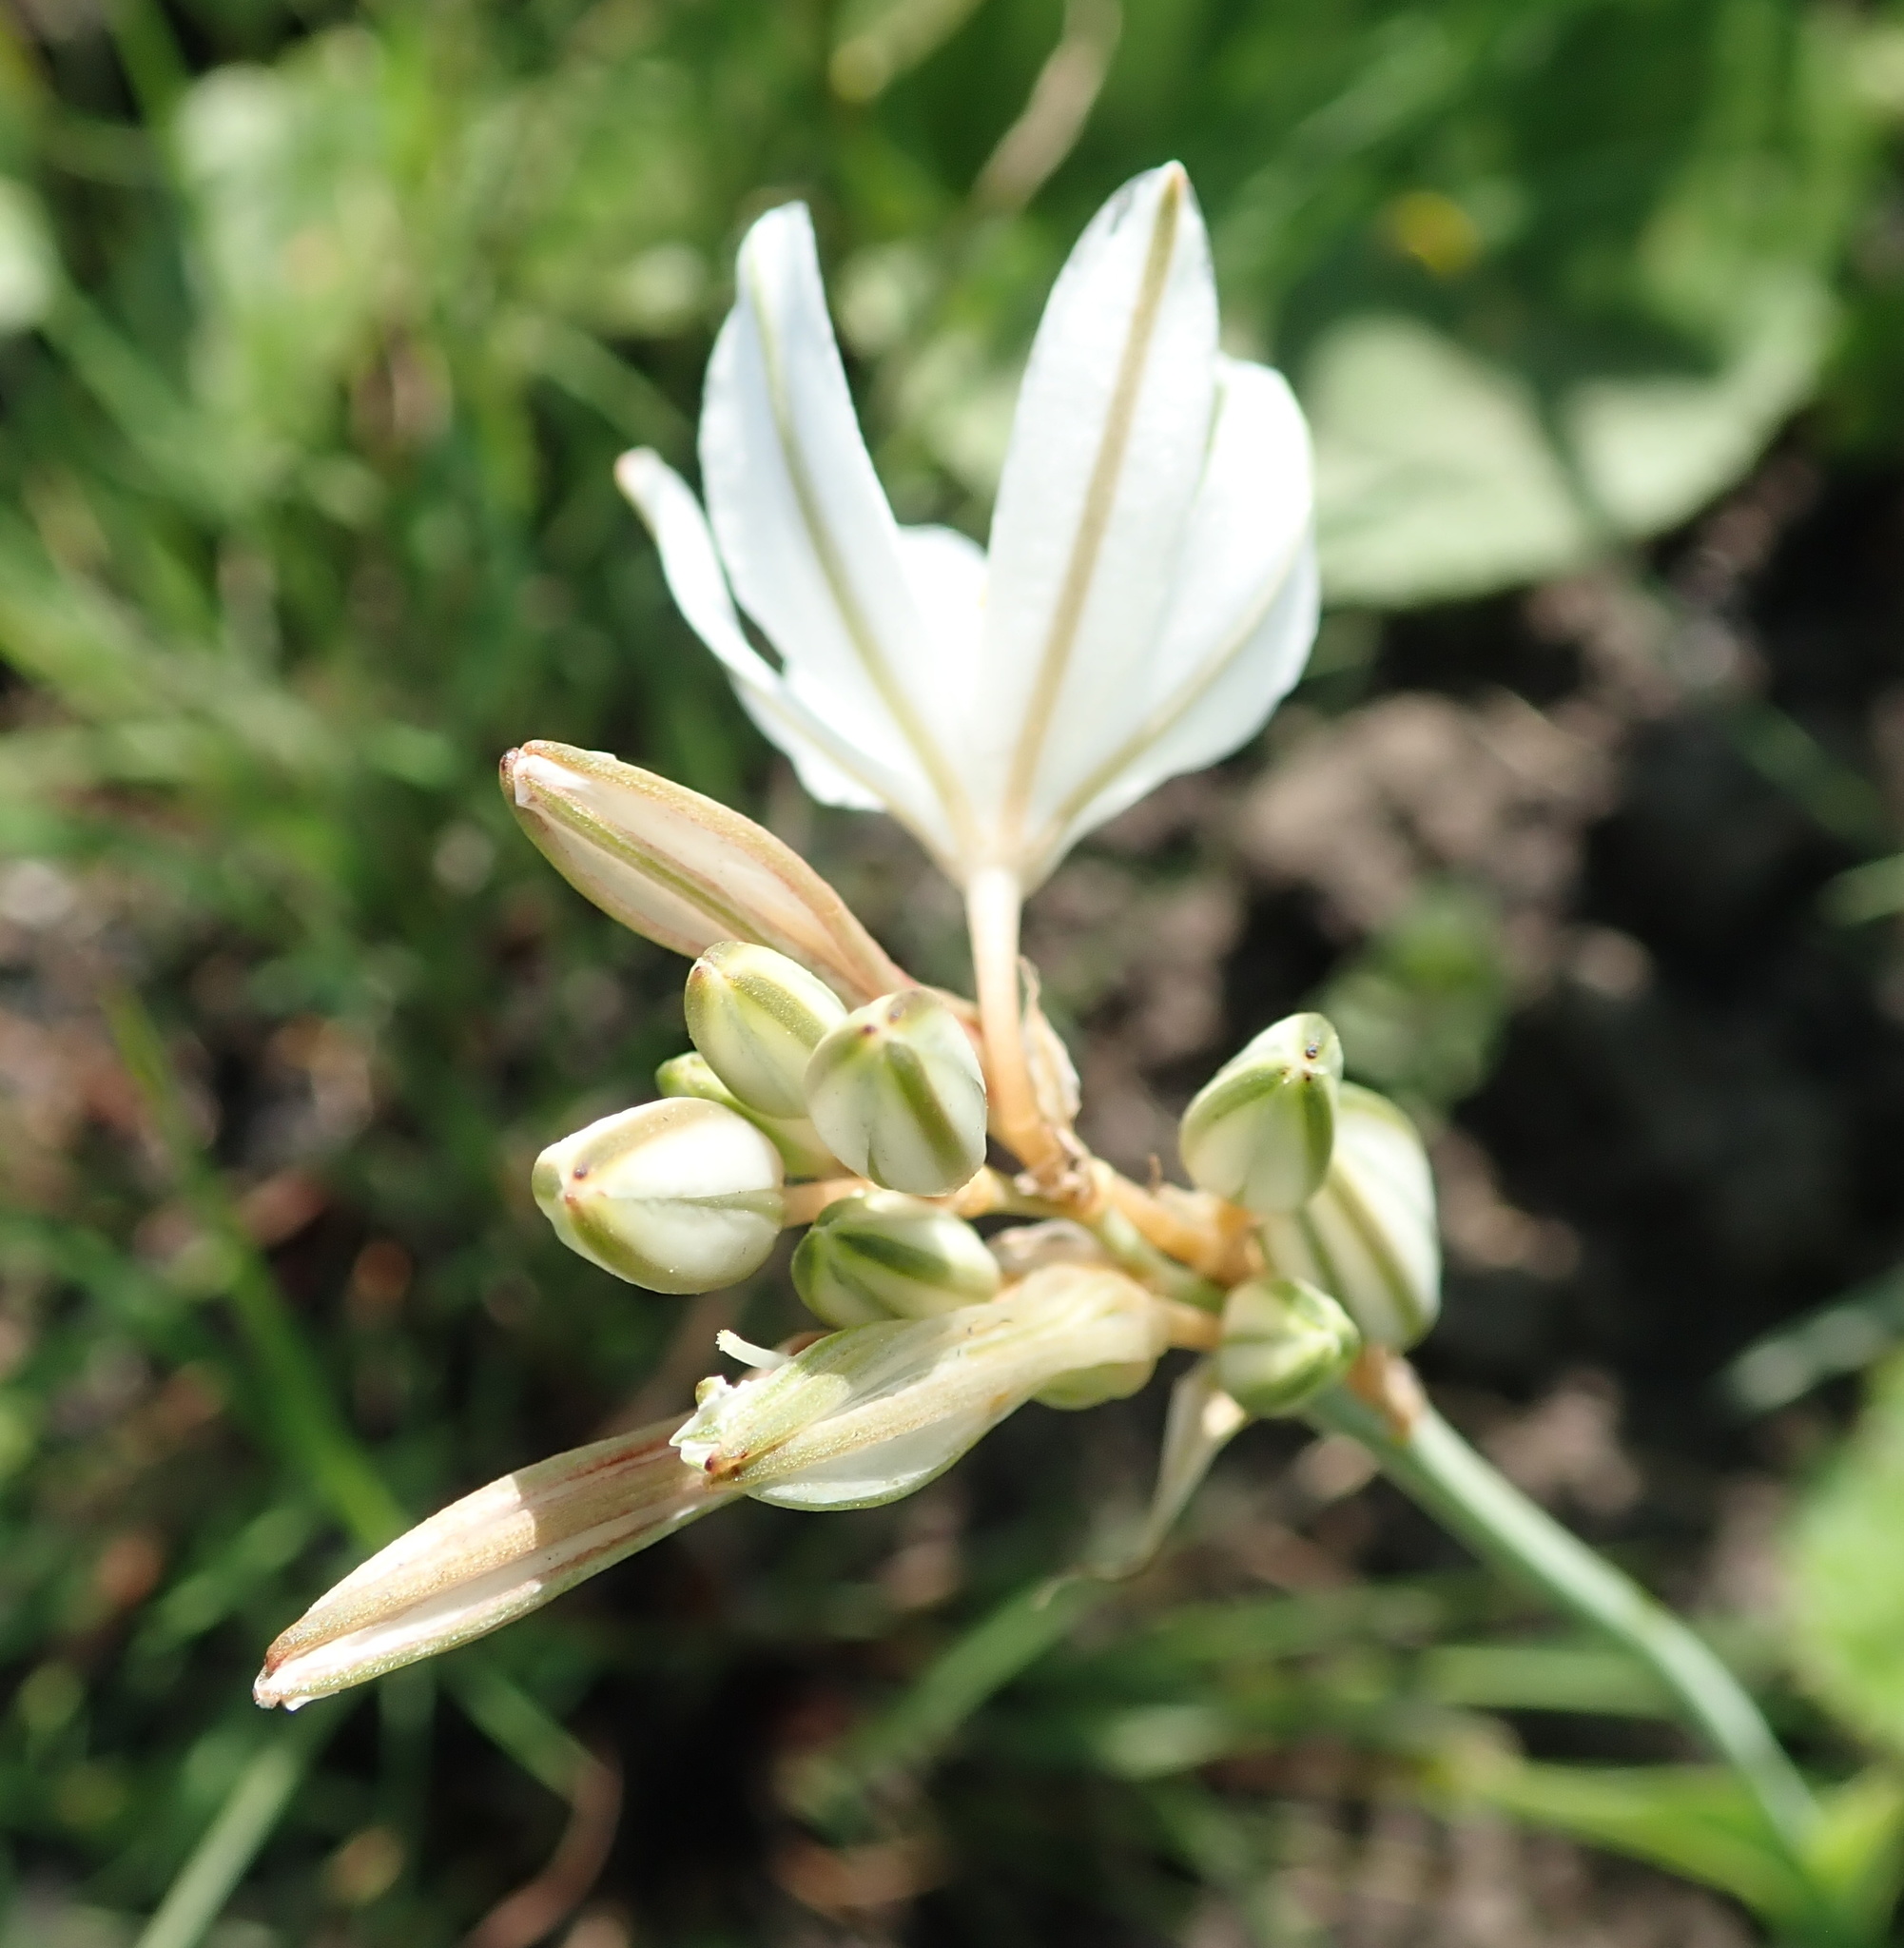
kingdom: Plantae
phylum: Tracheophyta
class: Liliopsida
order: Asparagales
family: Asparagaceae
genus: Chlorophytum
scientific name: Chlorophytum cooperi
